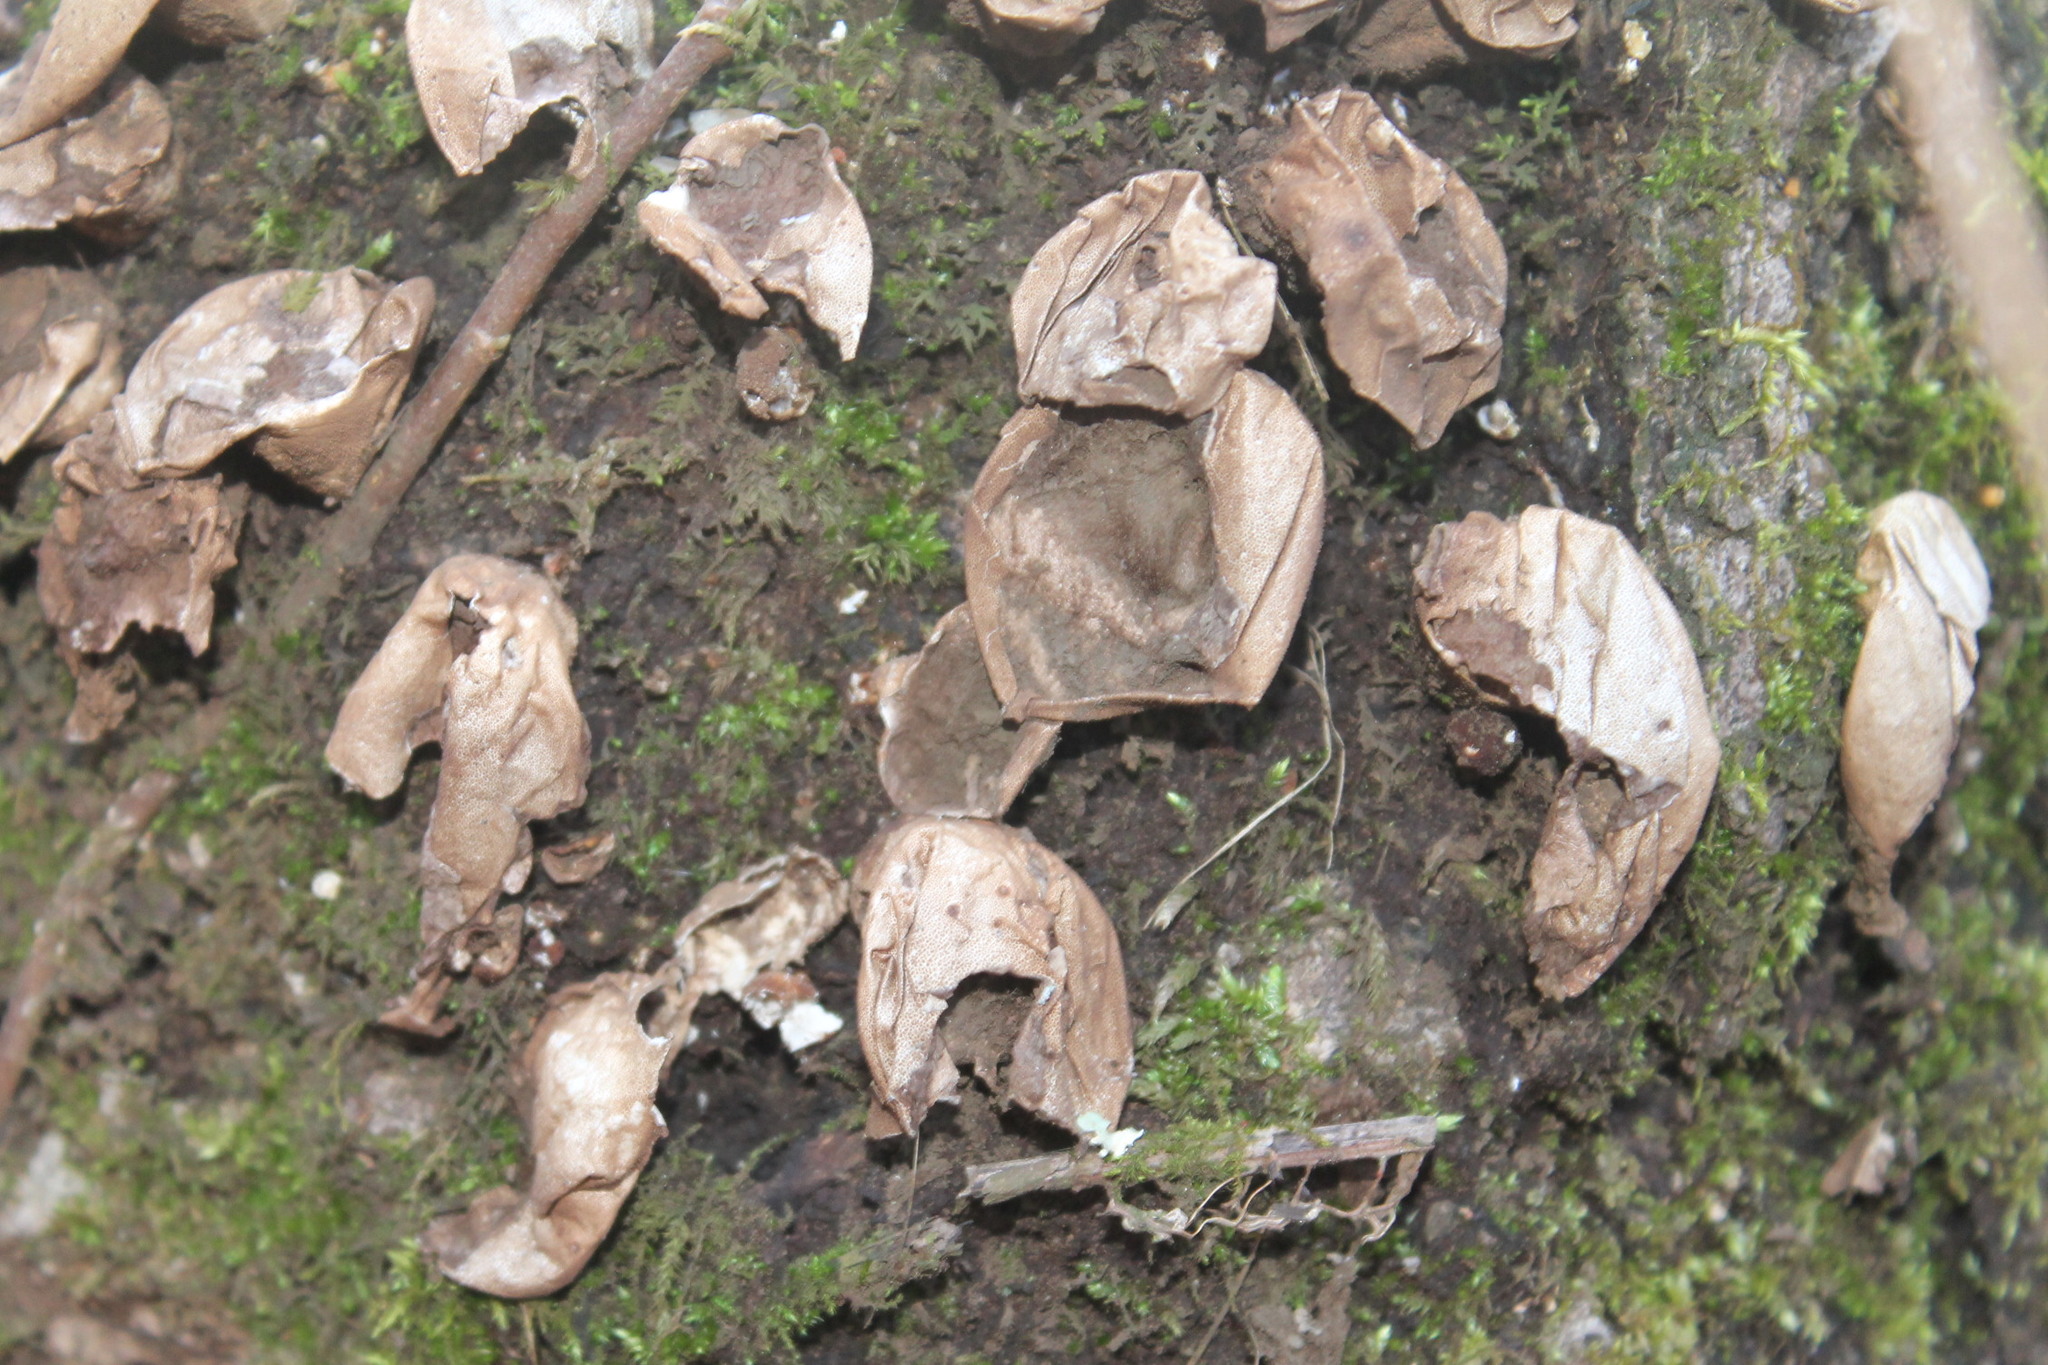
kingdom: Fungi
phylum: Basidiomycota
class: Agaricomycetes
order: Agaricales
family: Lycoperdaceae
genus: Apioperdon
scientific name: Apioperdon pyriforme
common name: Pear-shaped puffball
